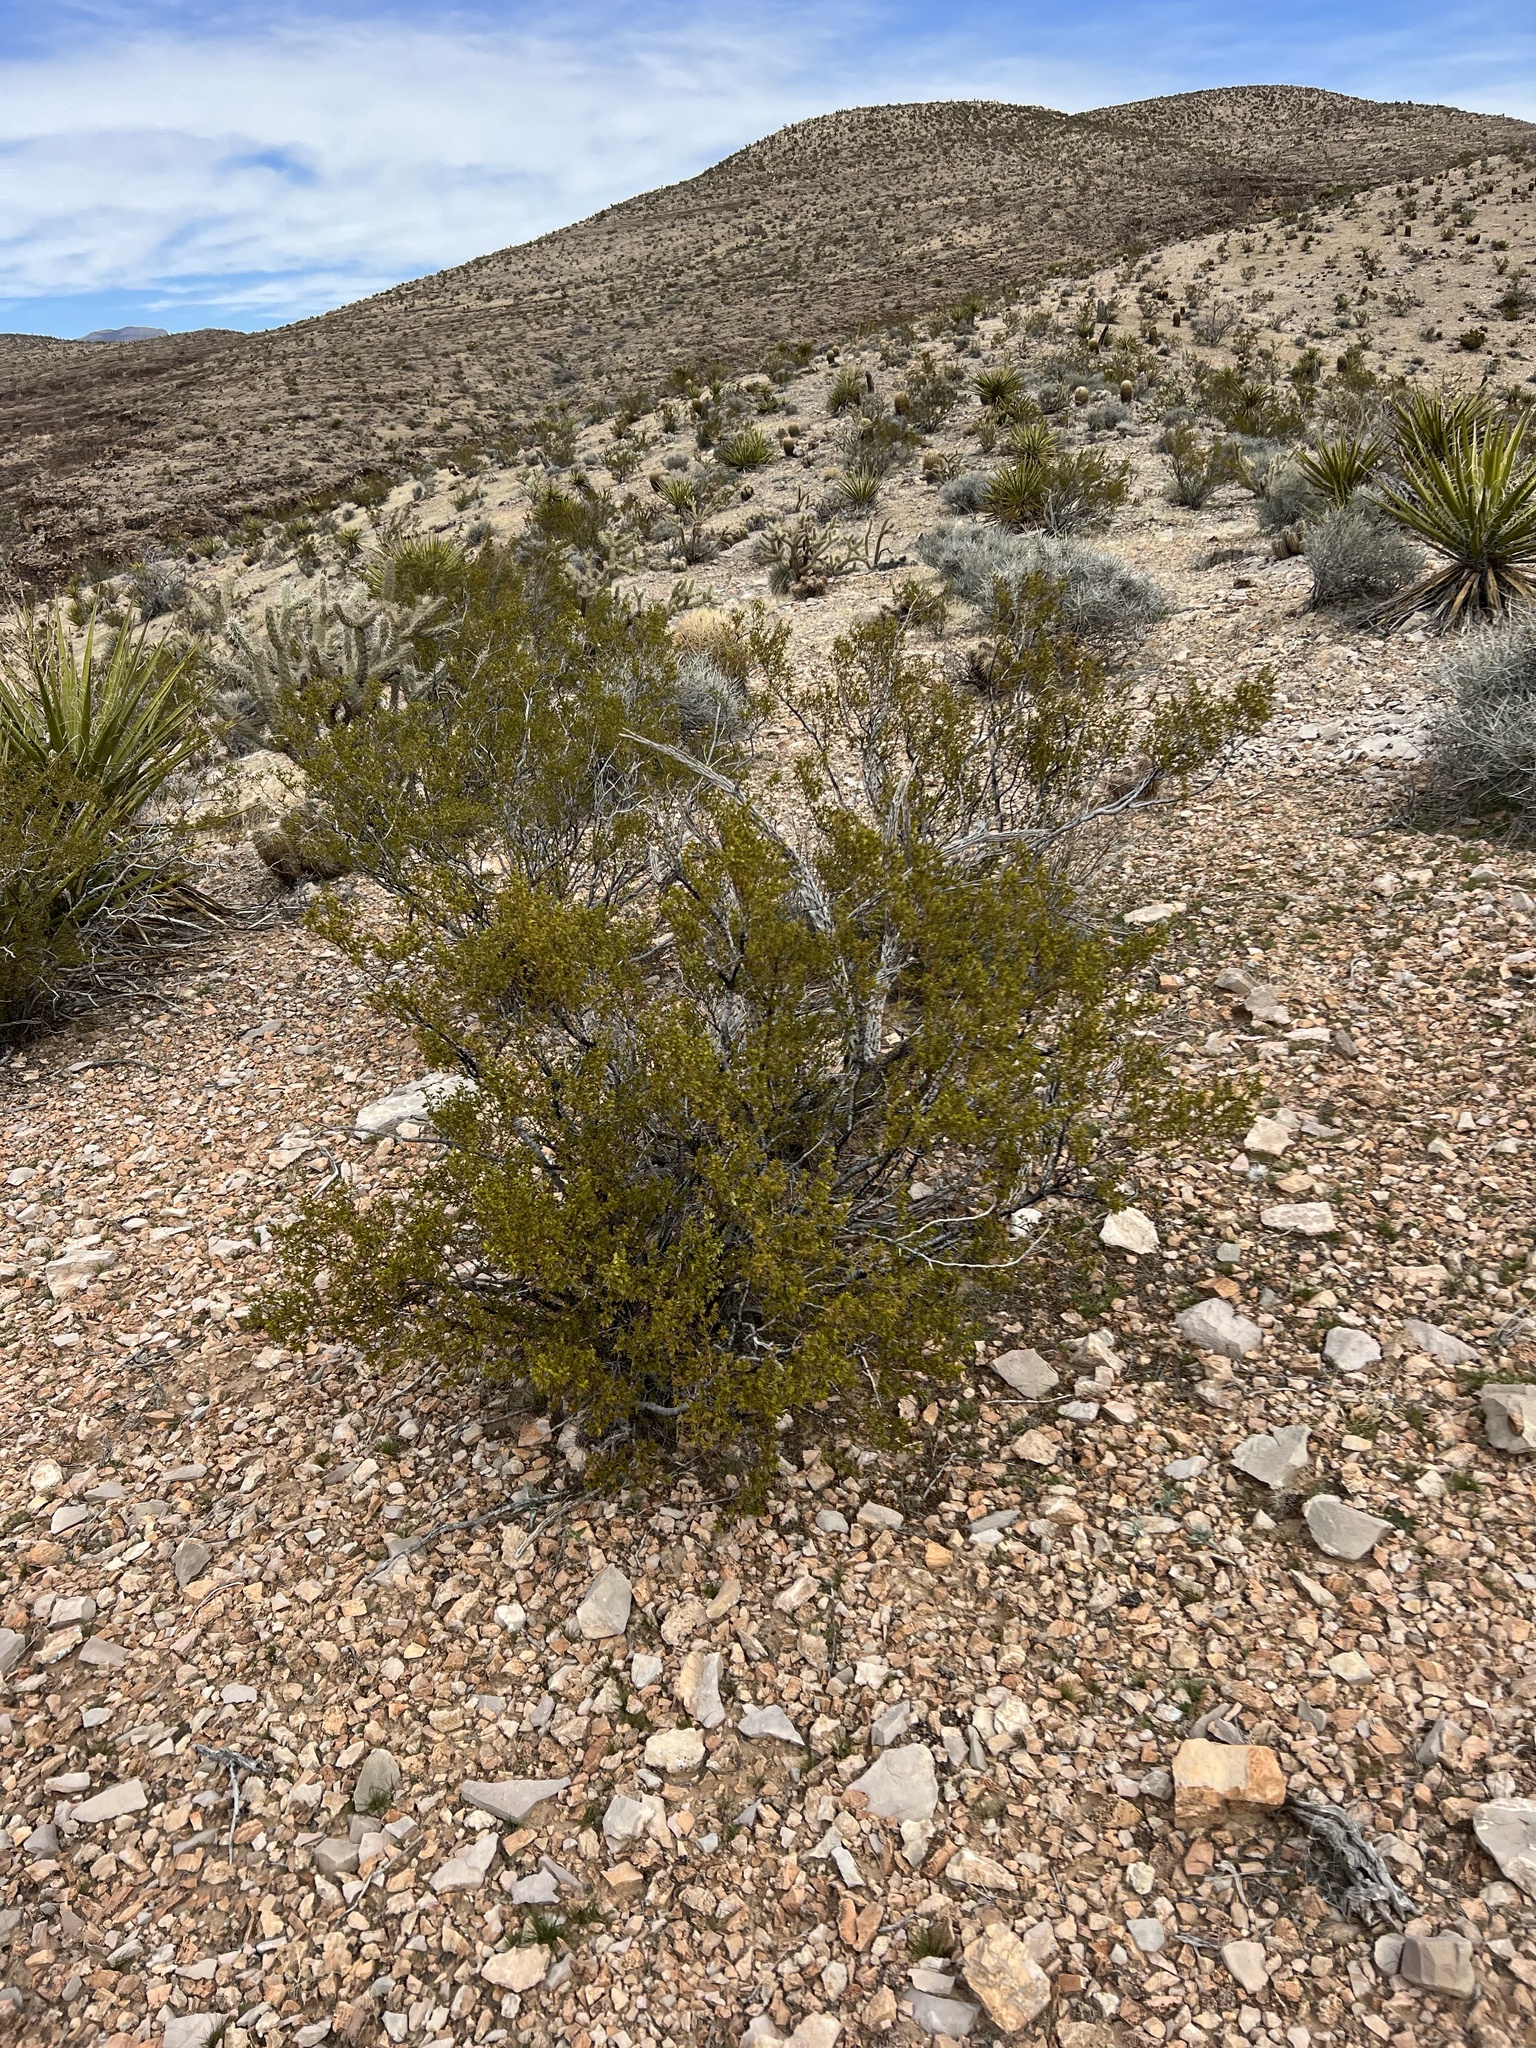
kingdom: Plantae
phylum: Tracheophyta
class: Magnoliopsida
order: Zygophyllales
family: Zygophyllaceae
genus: Larrea
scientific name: Larrea tridentata
